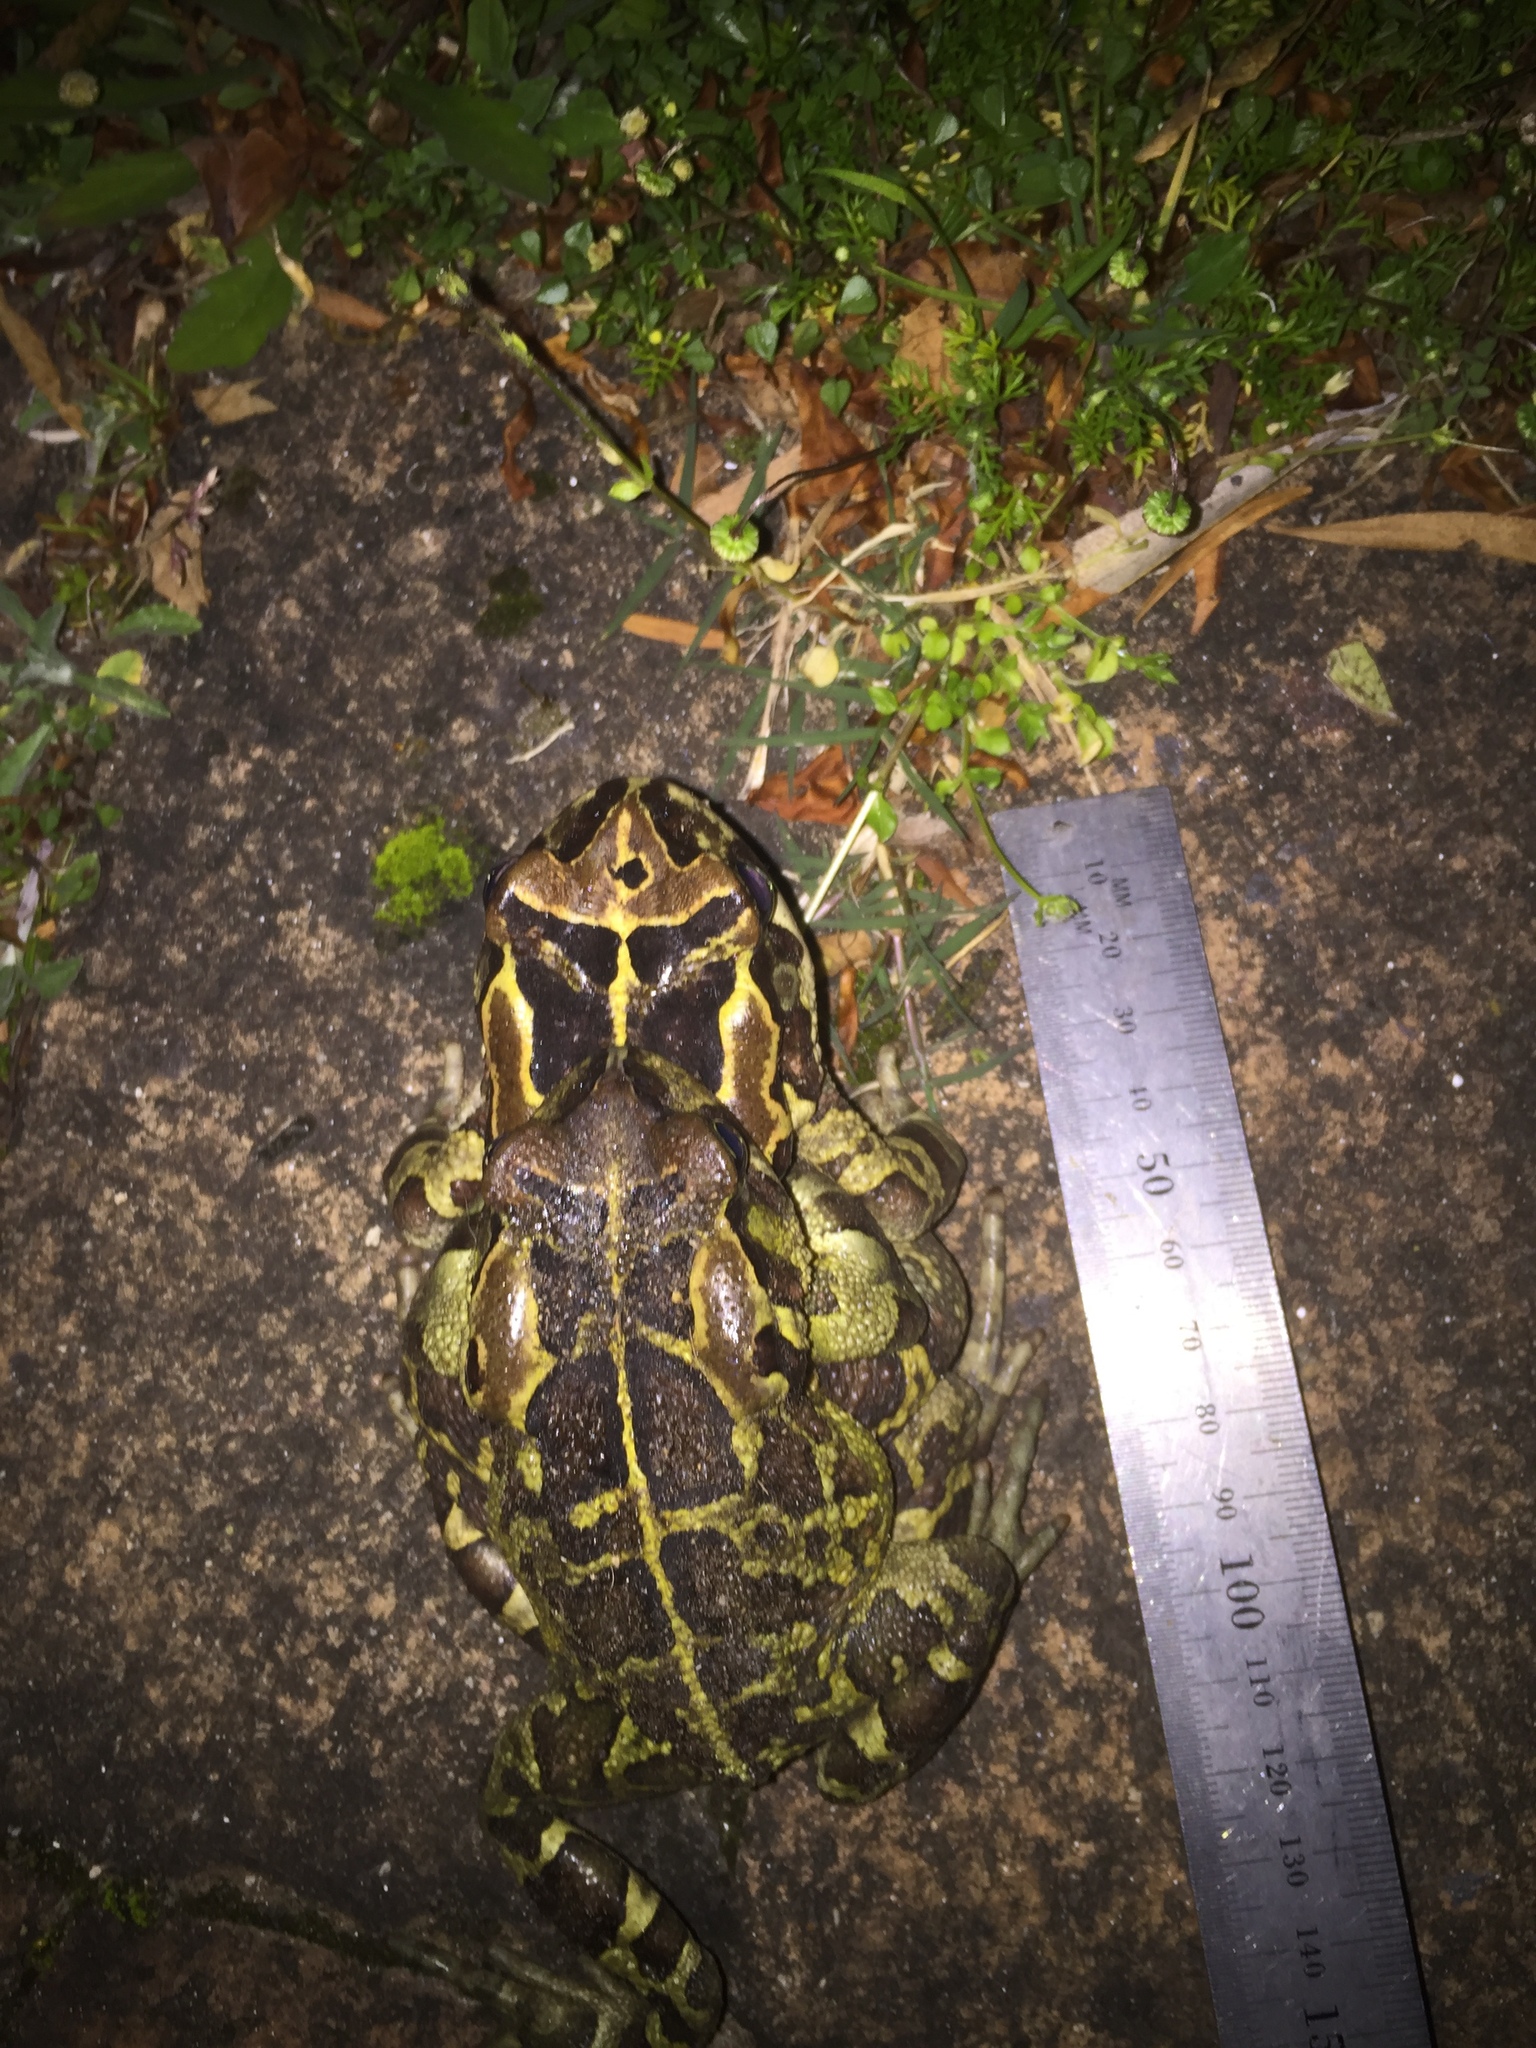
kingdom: Animalia
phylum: Chordata
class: Amphibia
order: Anura
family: Bufonidae
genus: Sclerophrys
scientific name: Sclerophrys pantherina
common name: Panther toad
